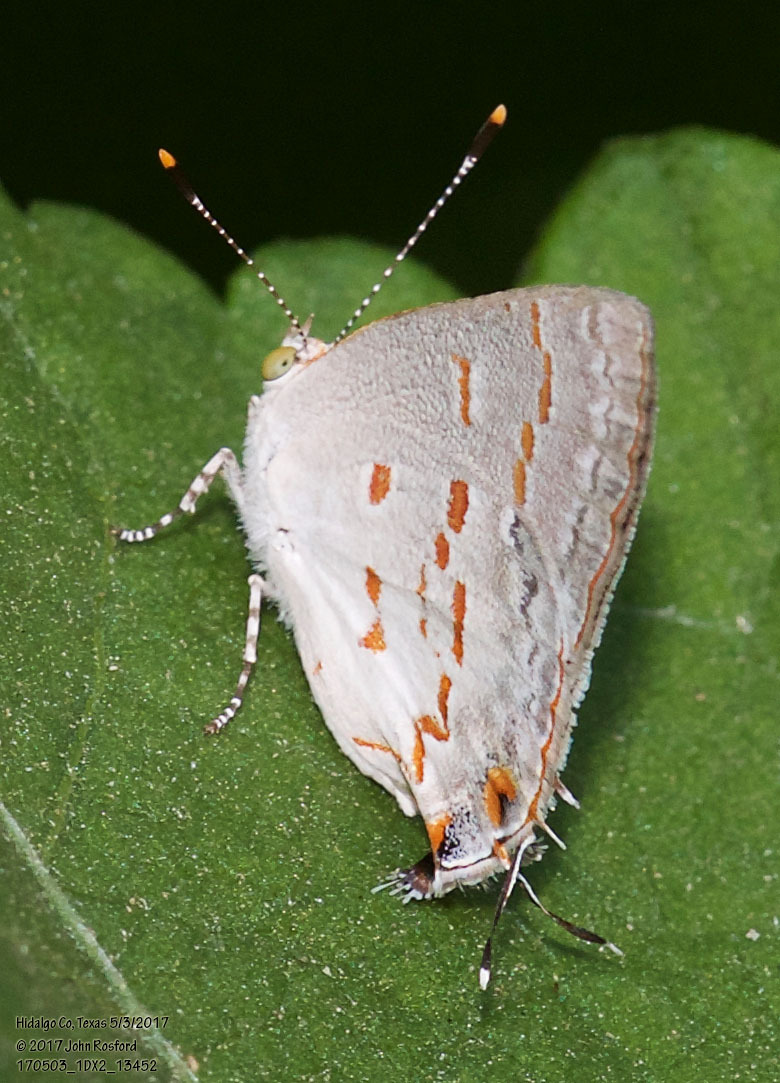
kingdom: Animalia
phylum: Arthropoda
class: Insecta
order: Lepidoptera
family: Lycaenidae
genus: Ministrymon
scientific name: Ministrymon clytie
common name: Clytie ministreak
